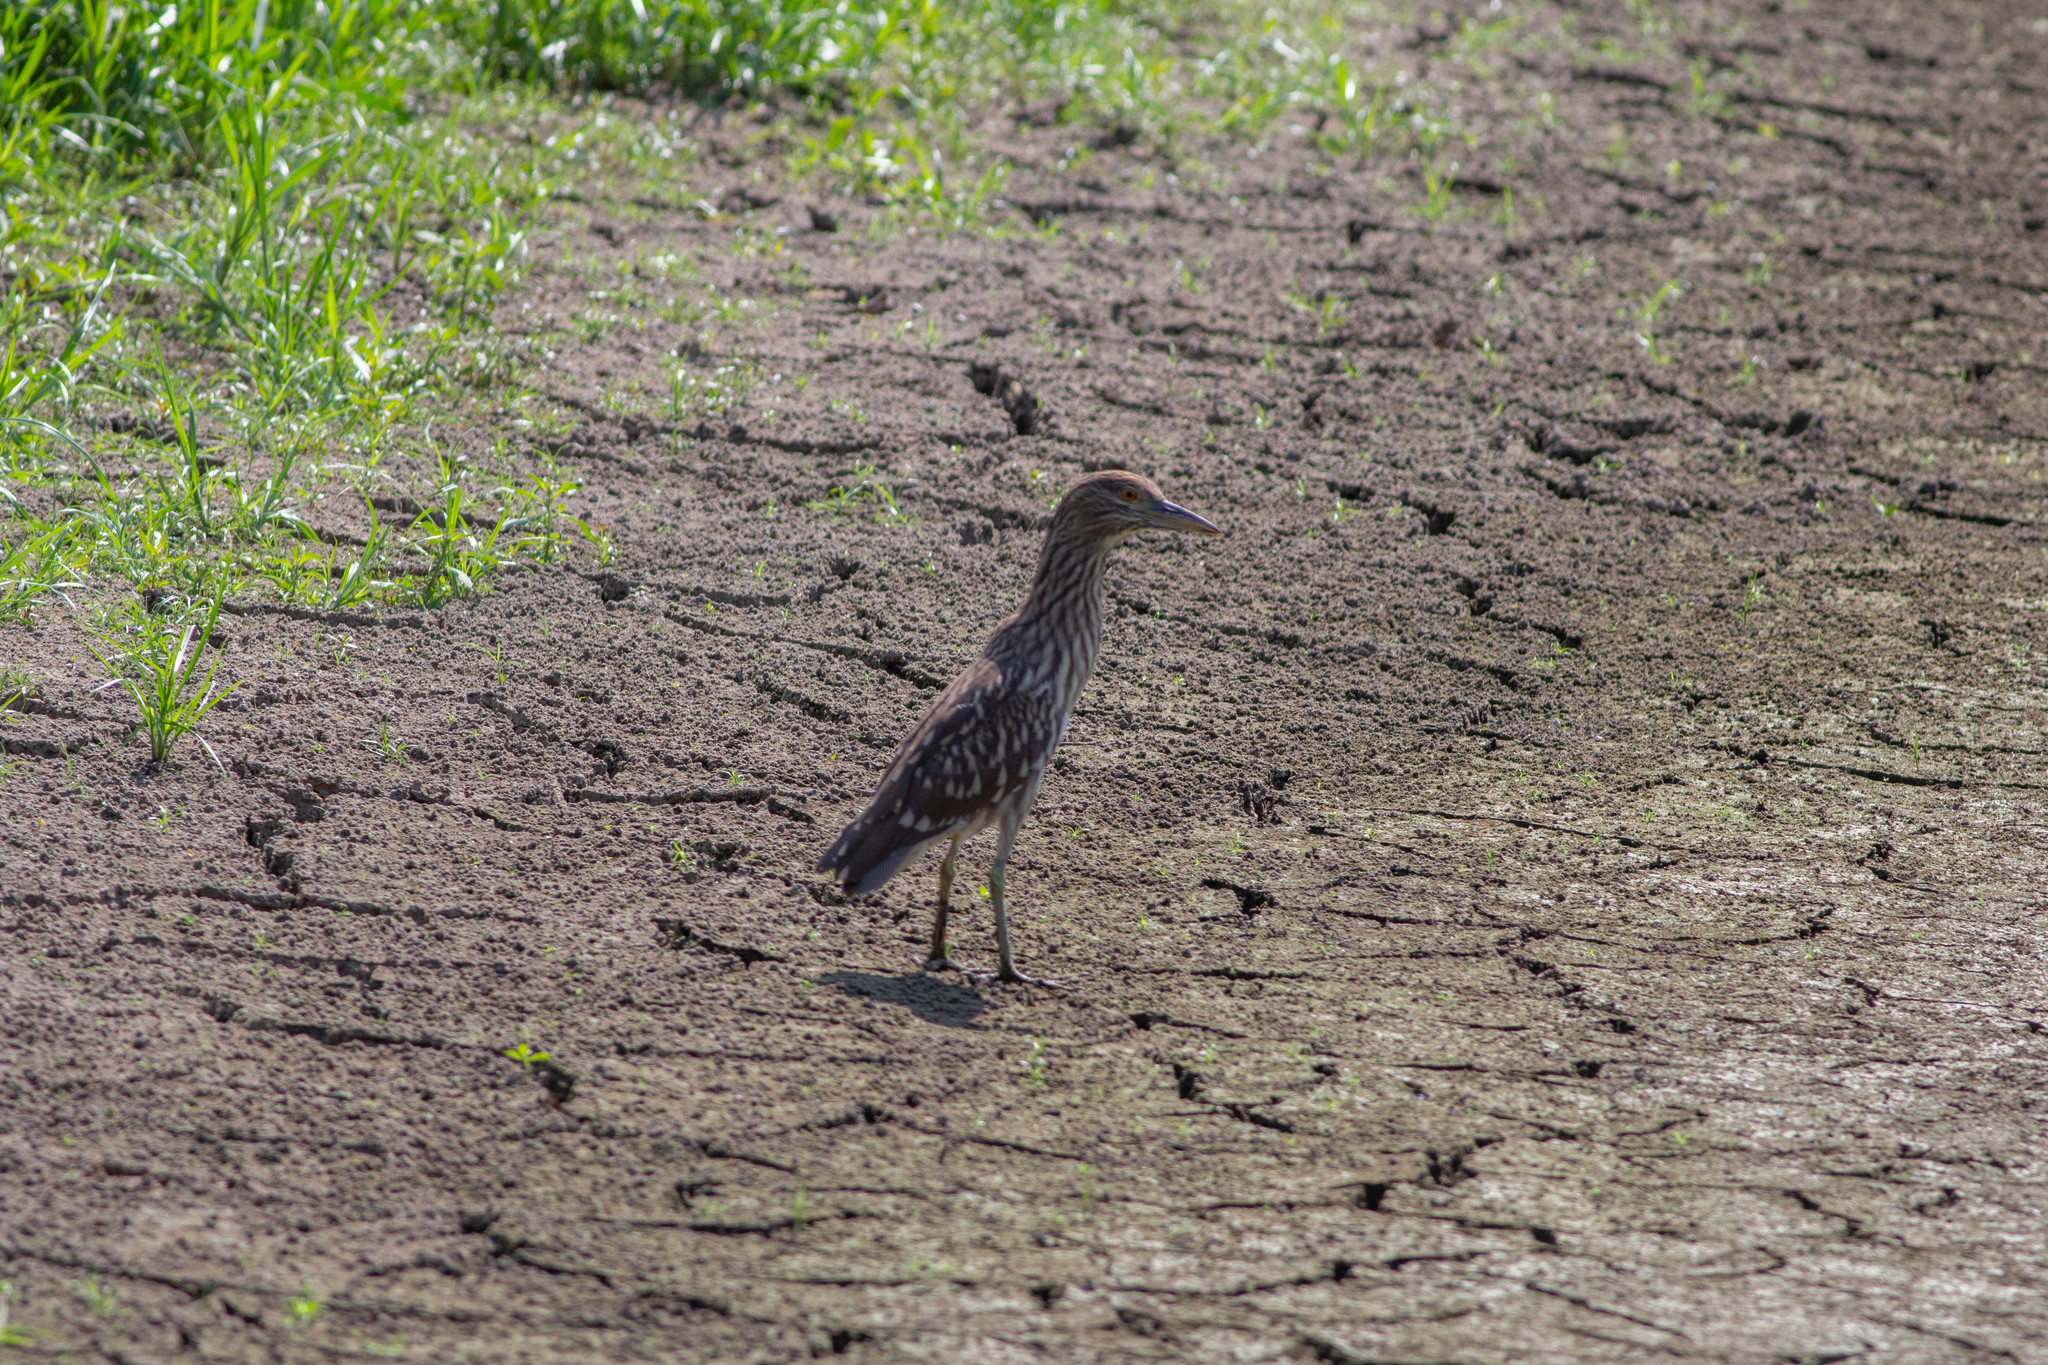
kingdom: Animalia
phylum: Chordata
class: Aves
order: Pelecaniformes
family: Ardeidae
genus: Nycticorax
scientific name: Nycticorax nycticorax
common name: Black-crowned night heron
